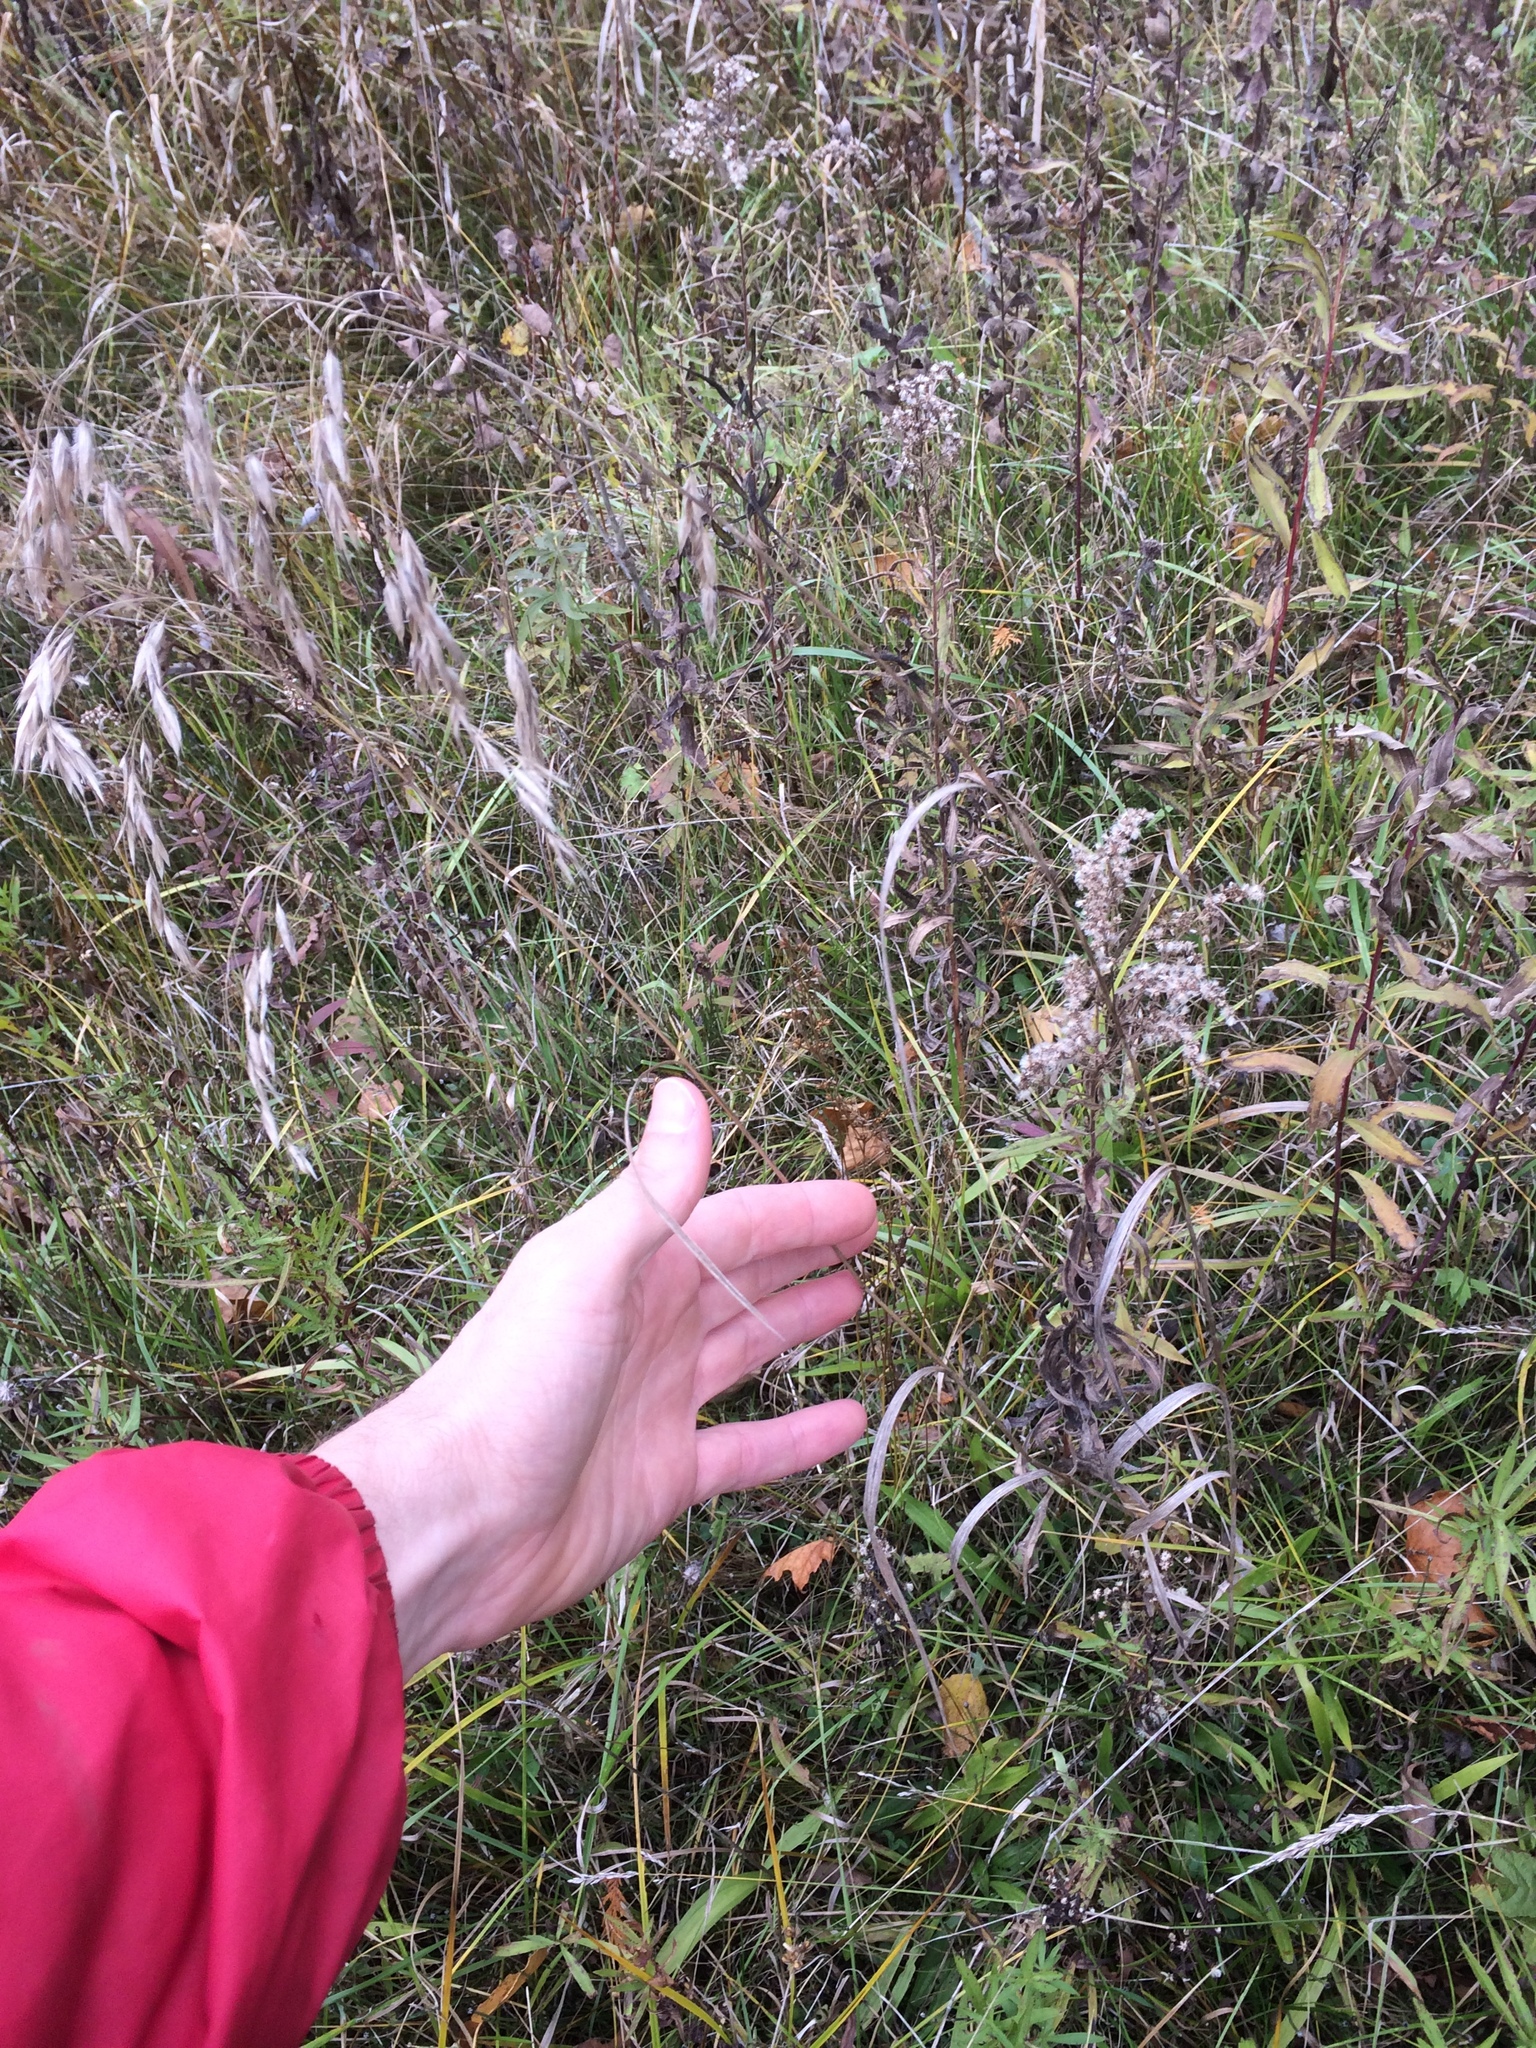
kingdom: Plantae
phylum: Tracheophyta
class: Liliopsida
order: Poales
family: Poaceae
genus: Bromus
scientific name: Bromus ciliatus
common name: Fringe brome
